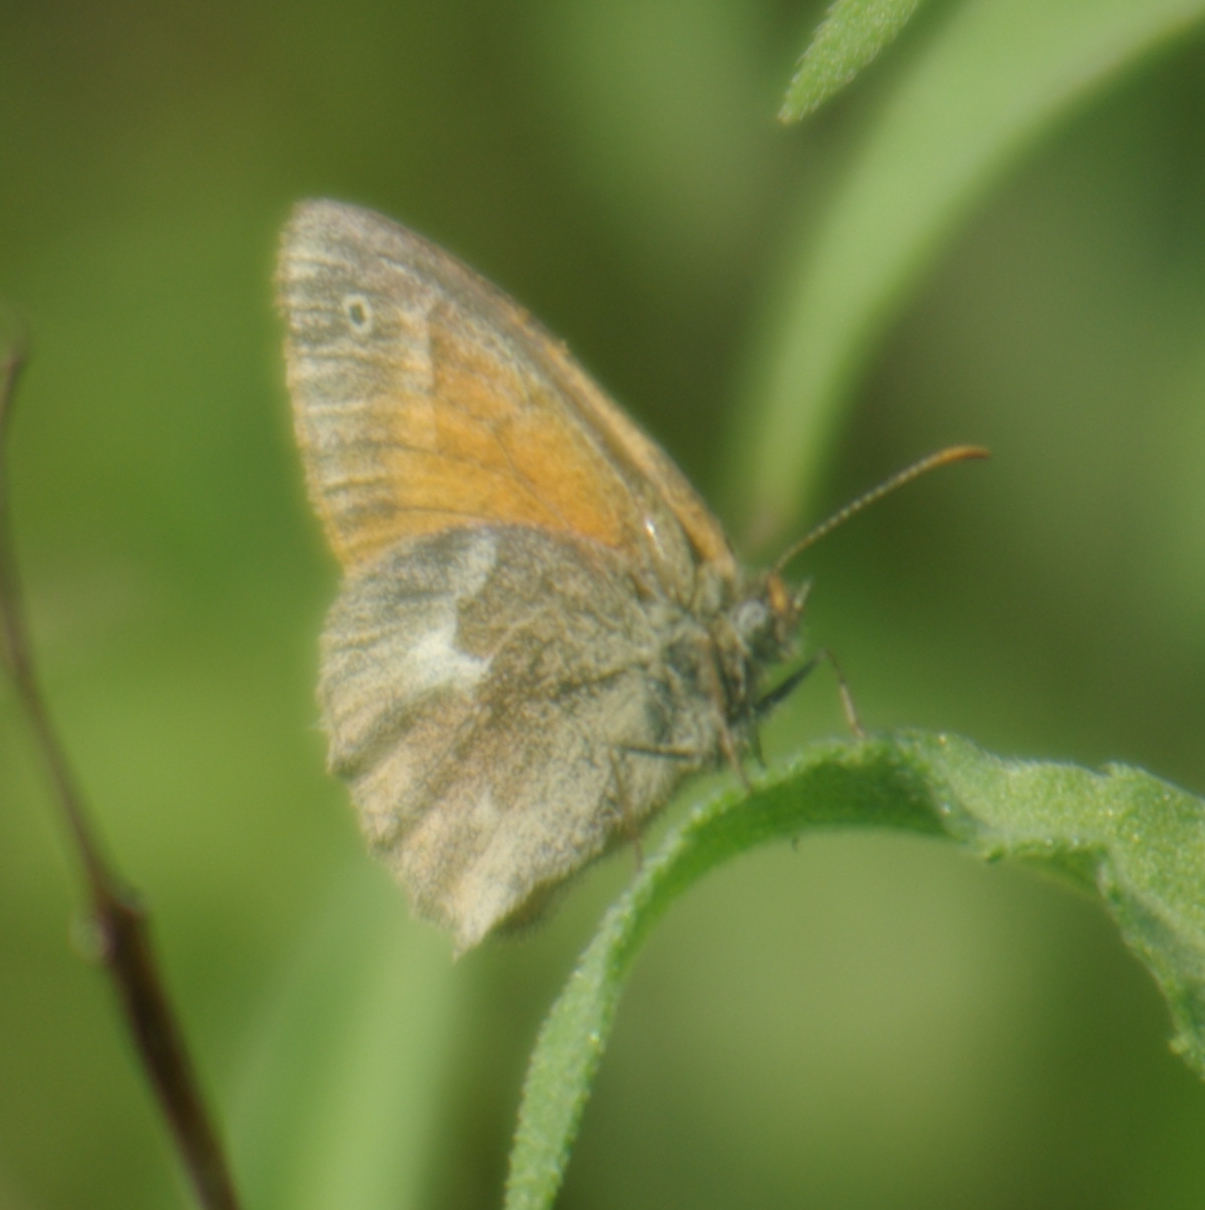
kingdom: Animalia
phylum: Arthropoda
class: Insecta
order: Lepidoptera
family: Nymphalidae
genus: Coenonympha
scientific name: Coenonympha california
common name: Common ringlet
